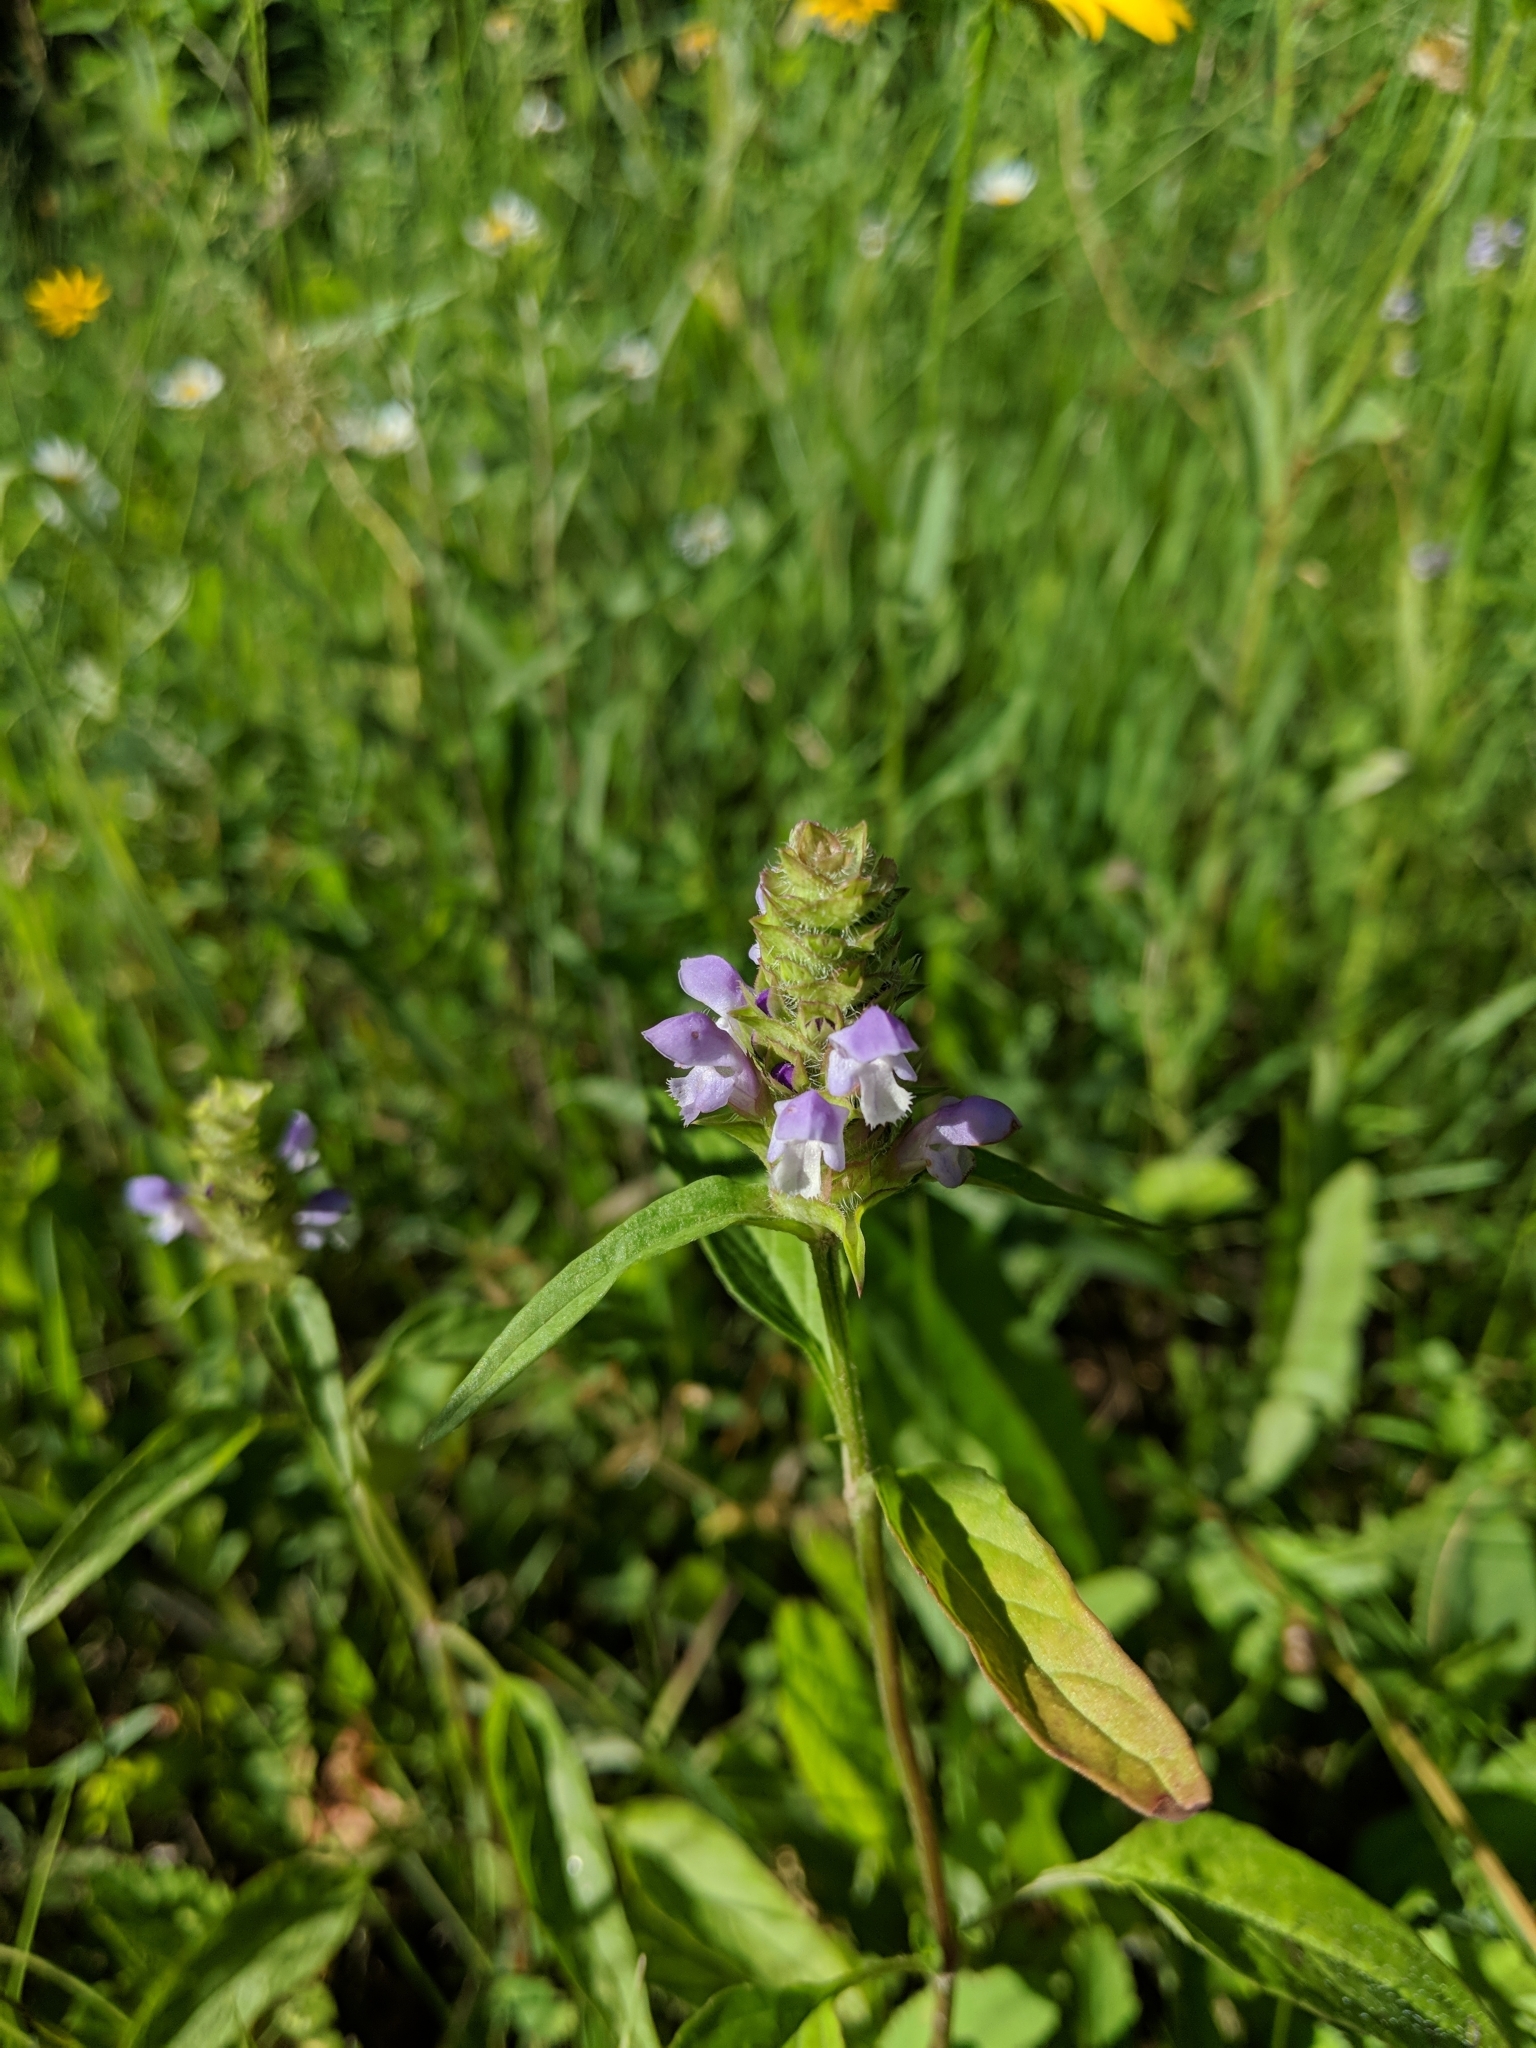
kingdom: Plantae
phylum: Tracheophyta
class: Magnoliopsida
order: Lamiales
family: Lamiaceae
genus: Prunella
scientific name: Prunella vulgaris
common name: Heal-all
